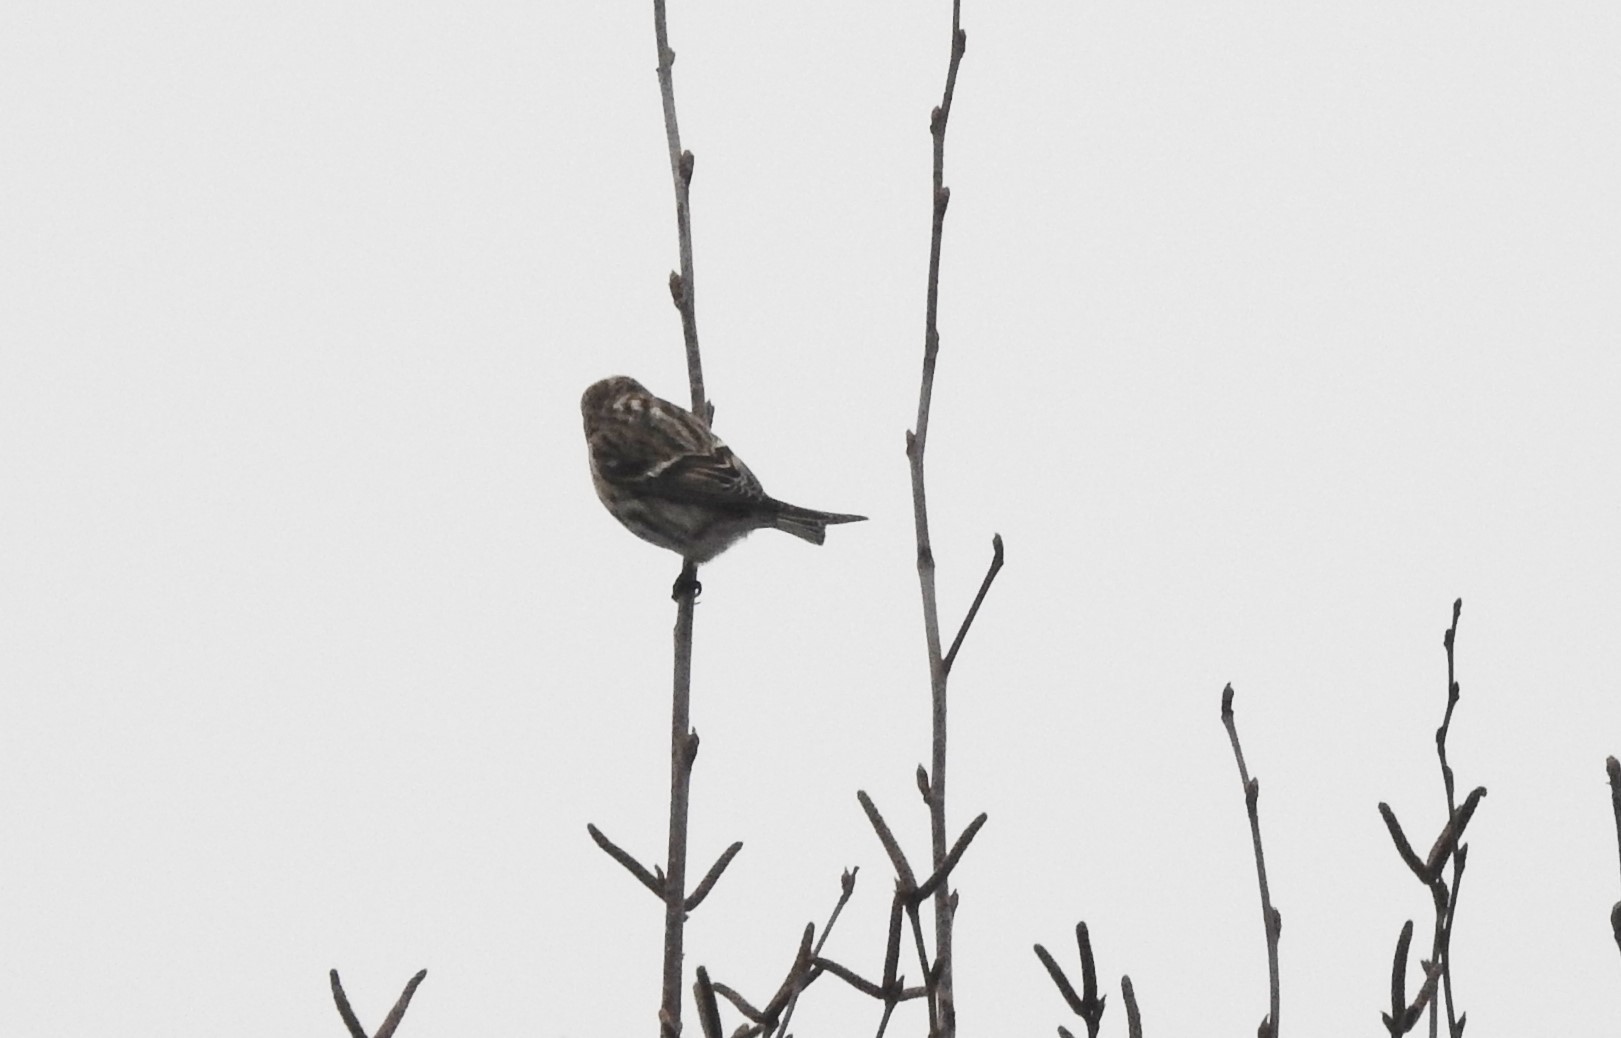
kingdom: Animalia
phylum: Chordata
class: Aves
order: Passeriformes
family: Fringillidae
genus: Acanthis
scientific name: Acanthis flammea
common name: Common redpoll
